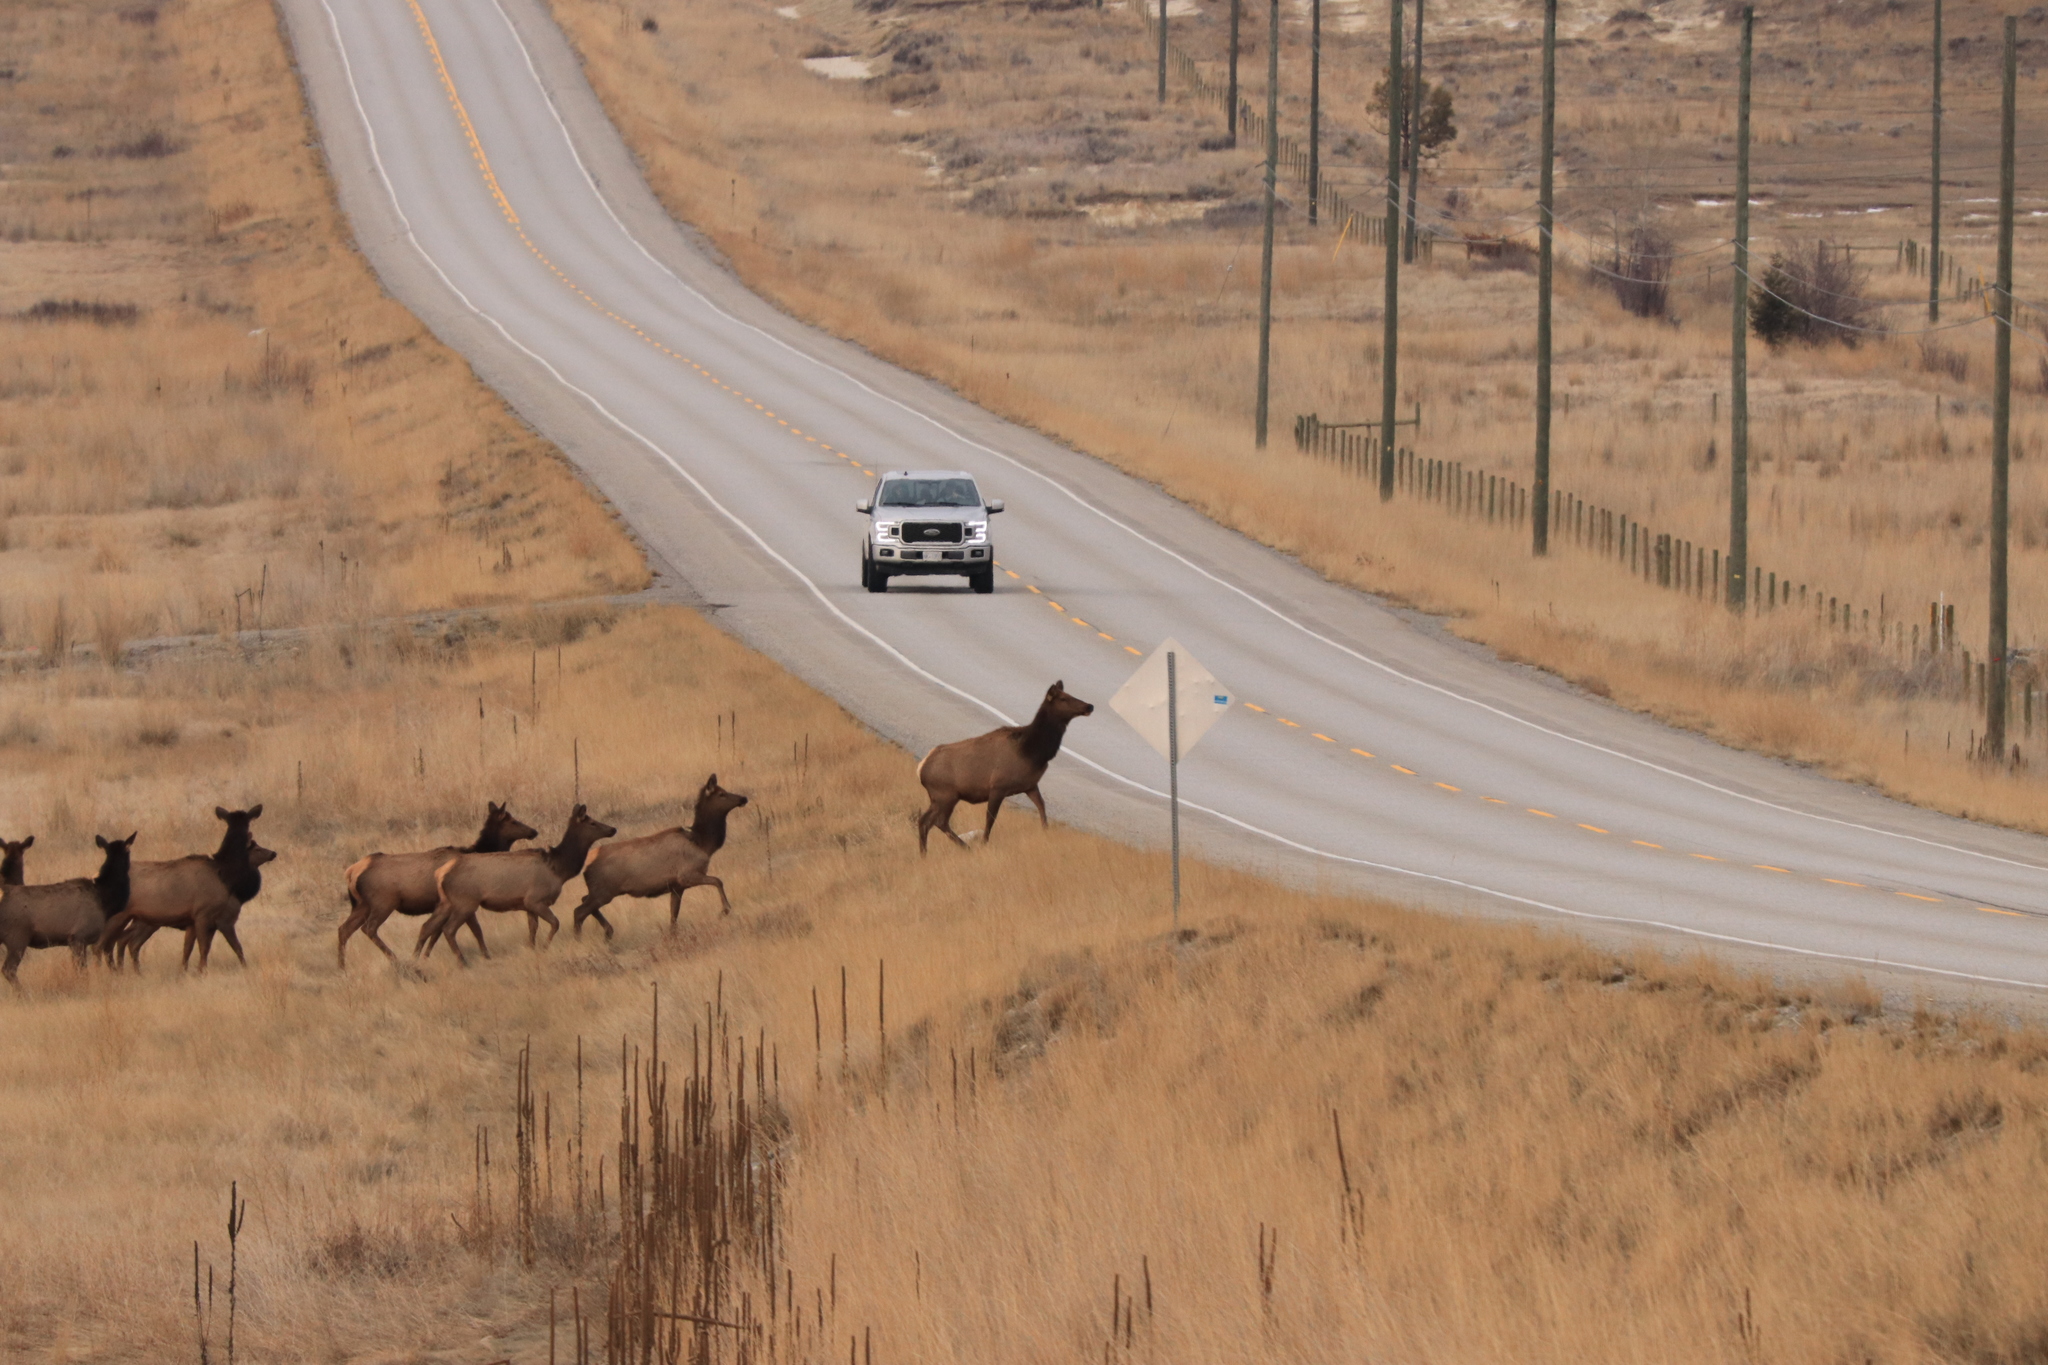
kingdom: Animalia
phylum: Chordata
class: Mammalia
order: Artiodactyla
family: Cervidae
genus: Cervus
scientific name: Cervus elaphus
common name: Red deer
